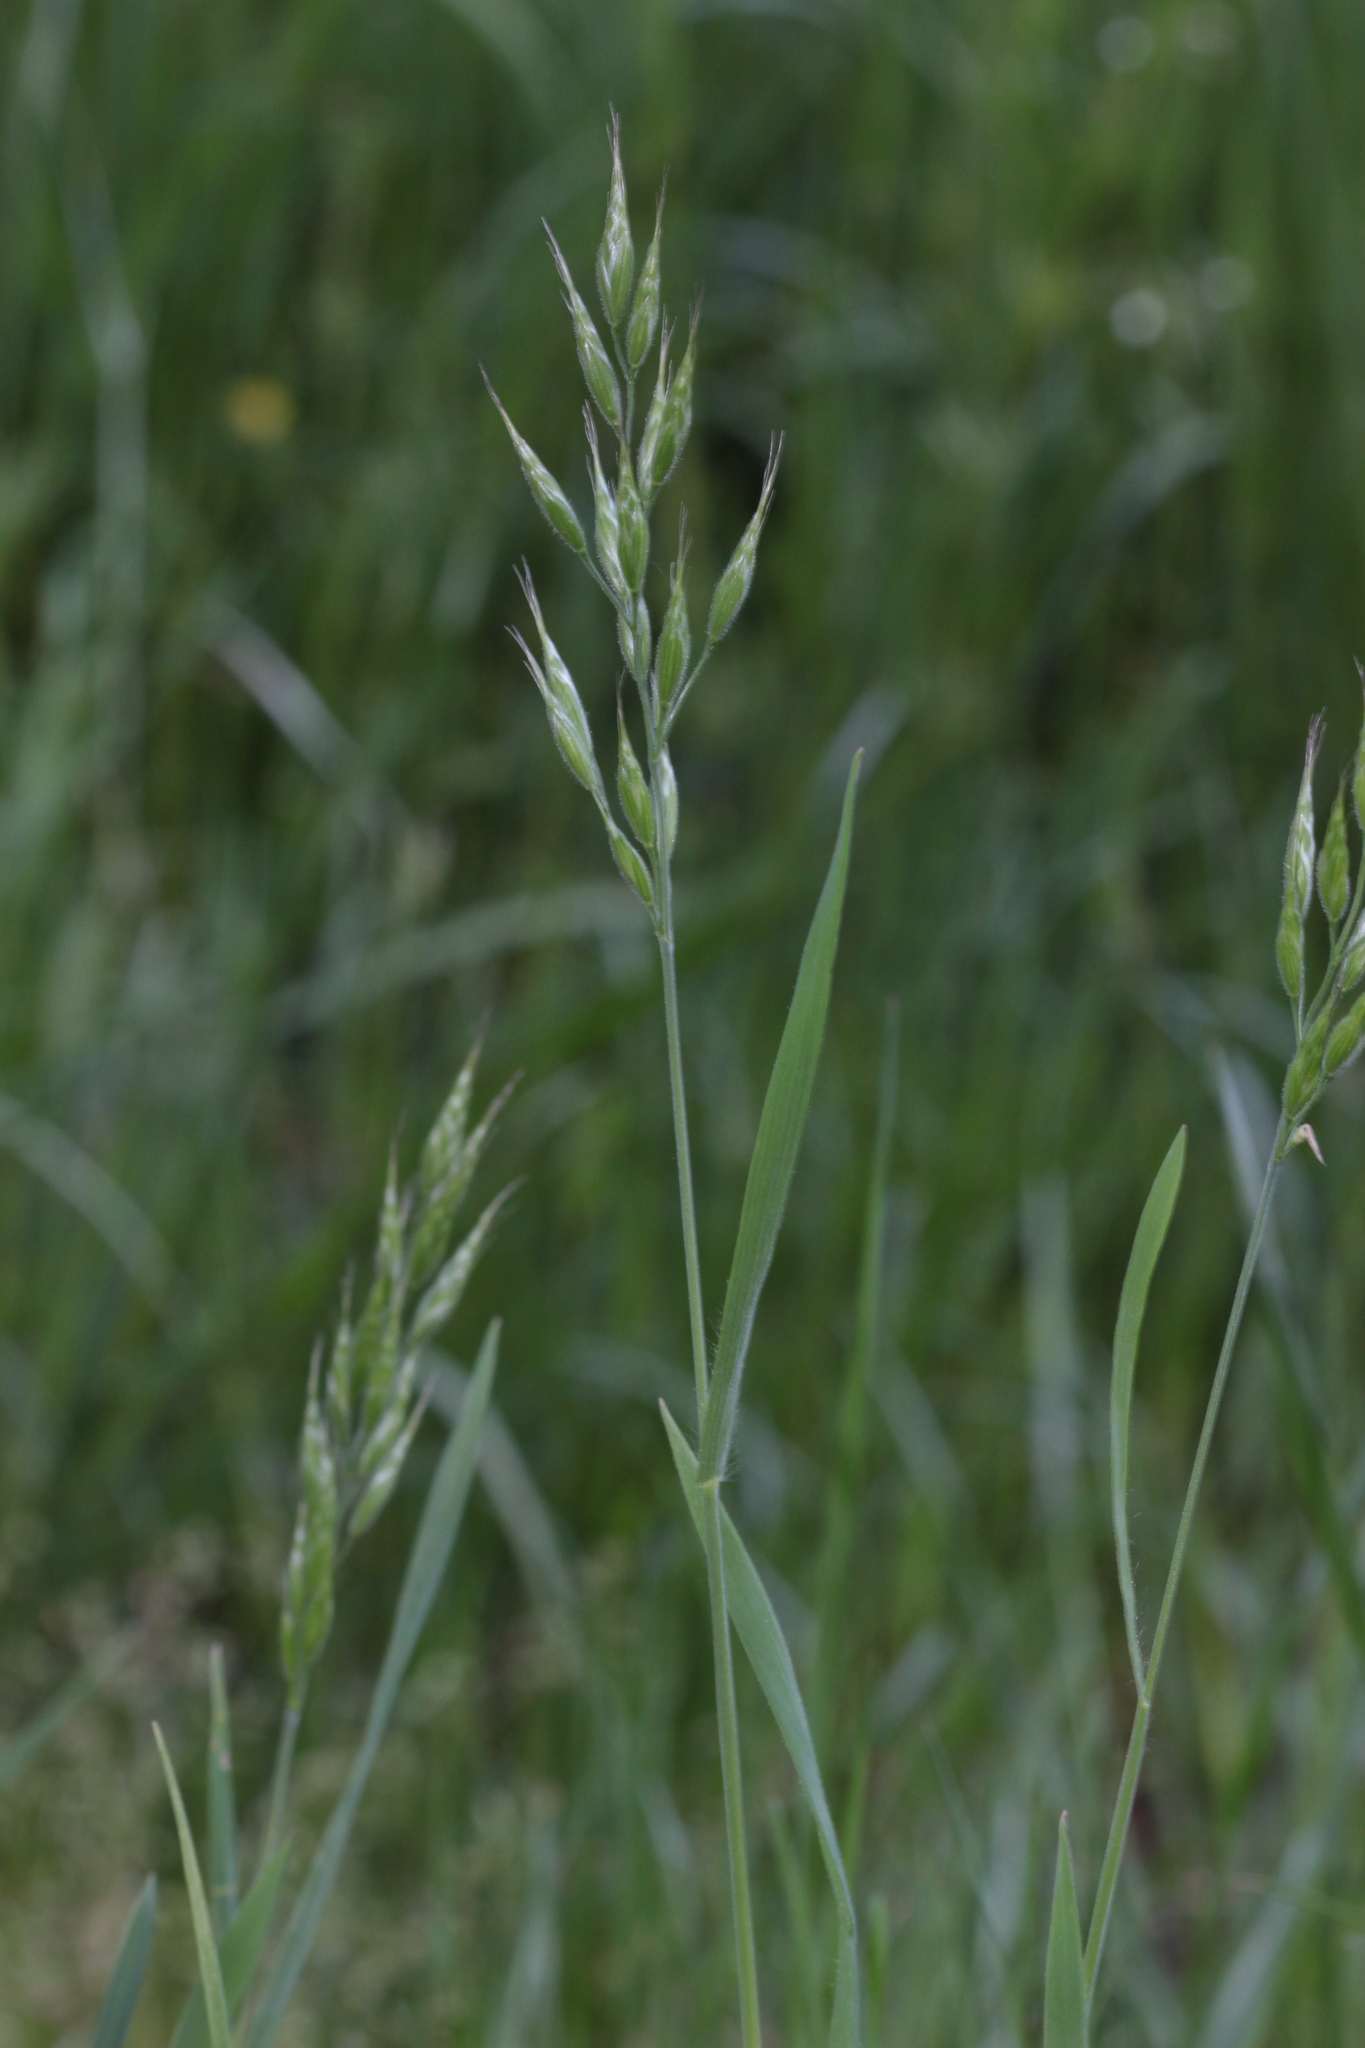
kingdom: Plantae
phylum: Tracheophyta
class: Liliopsida
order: Poales
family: Poaceae
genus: Bromus
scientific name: Bromus hordeaceus
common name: Soft brome
